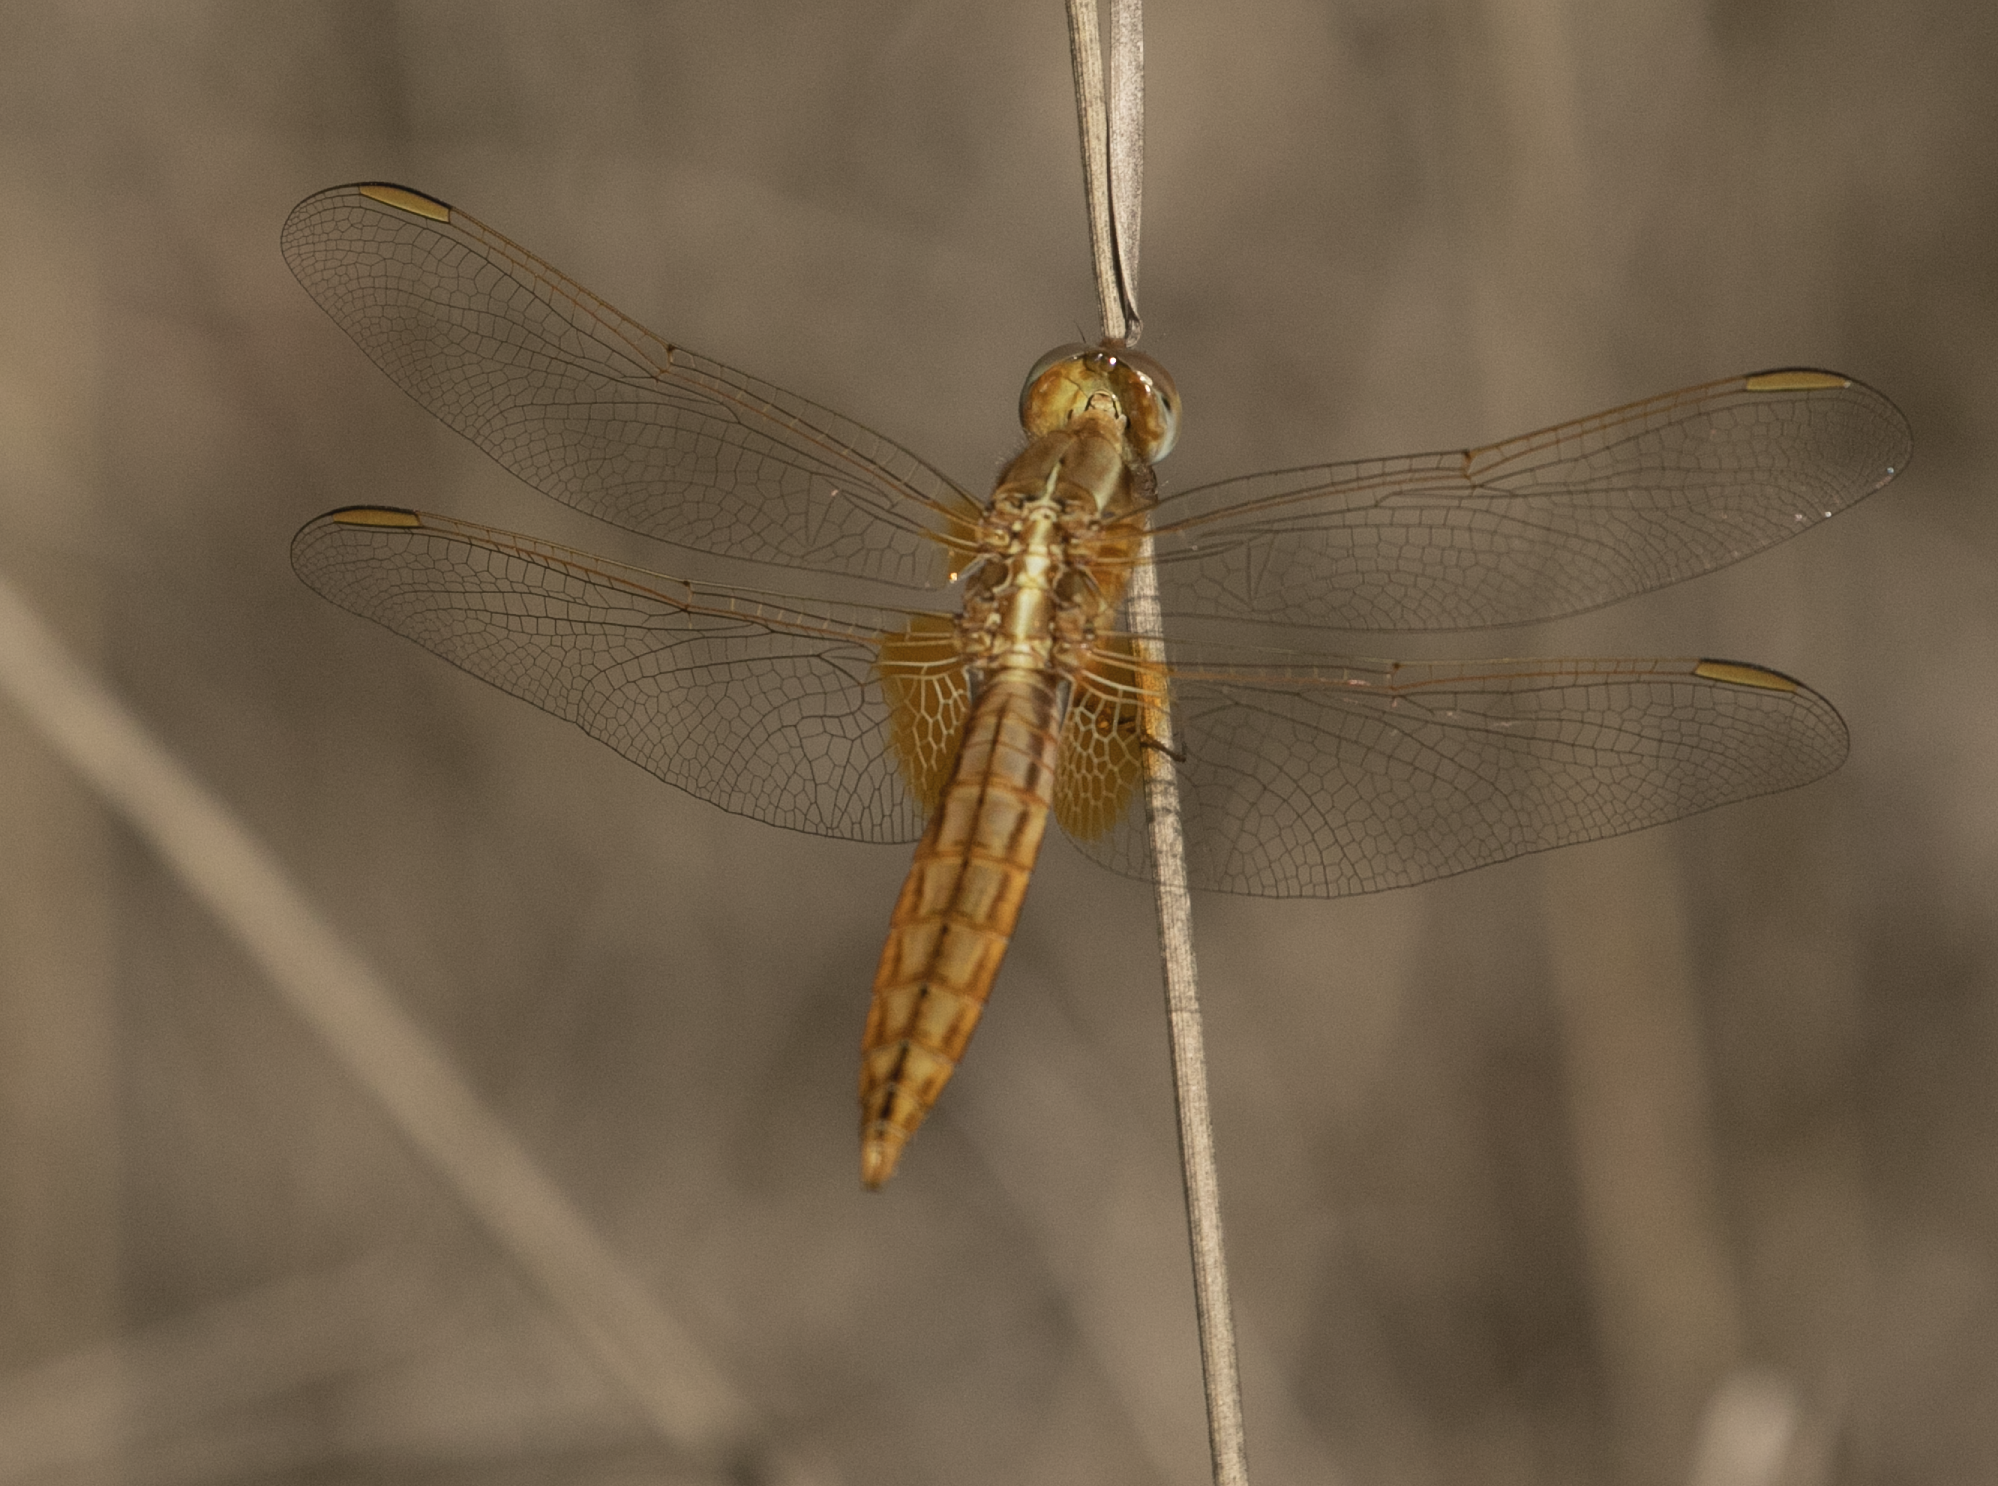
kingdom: Animalia
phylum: Arthropoda
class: Insecta
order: Odonata
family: Libellulidae
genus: Crocothemis
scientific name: Crocothemis erythraea
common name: Scarlet dragonfly
